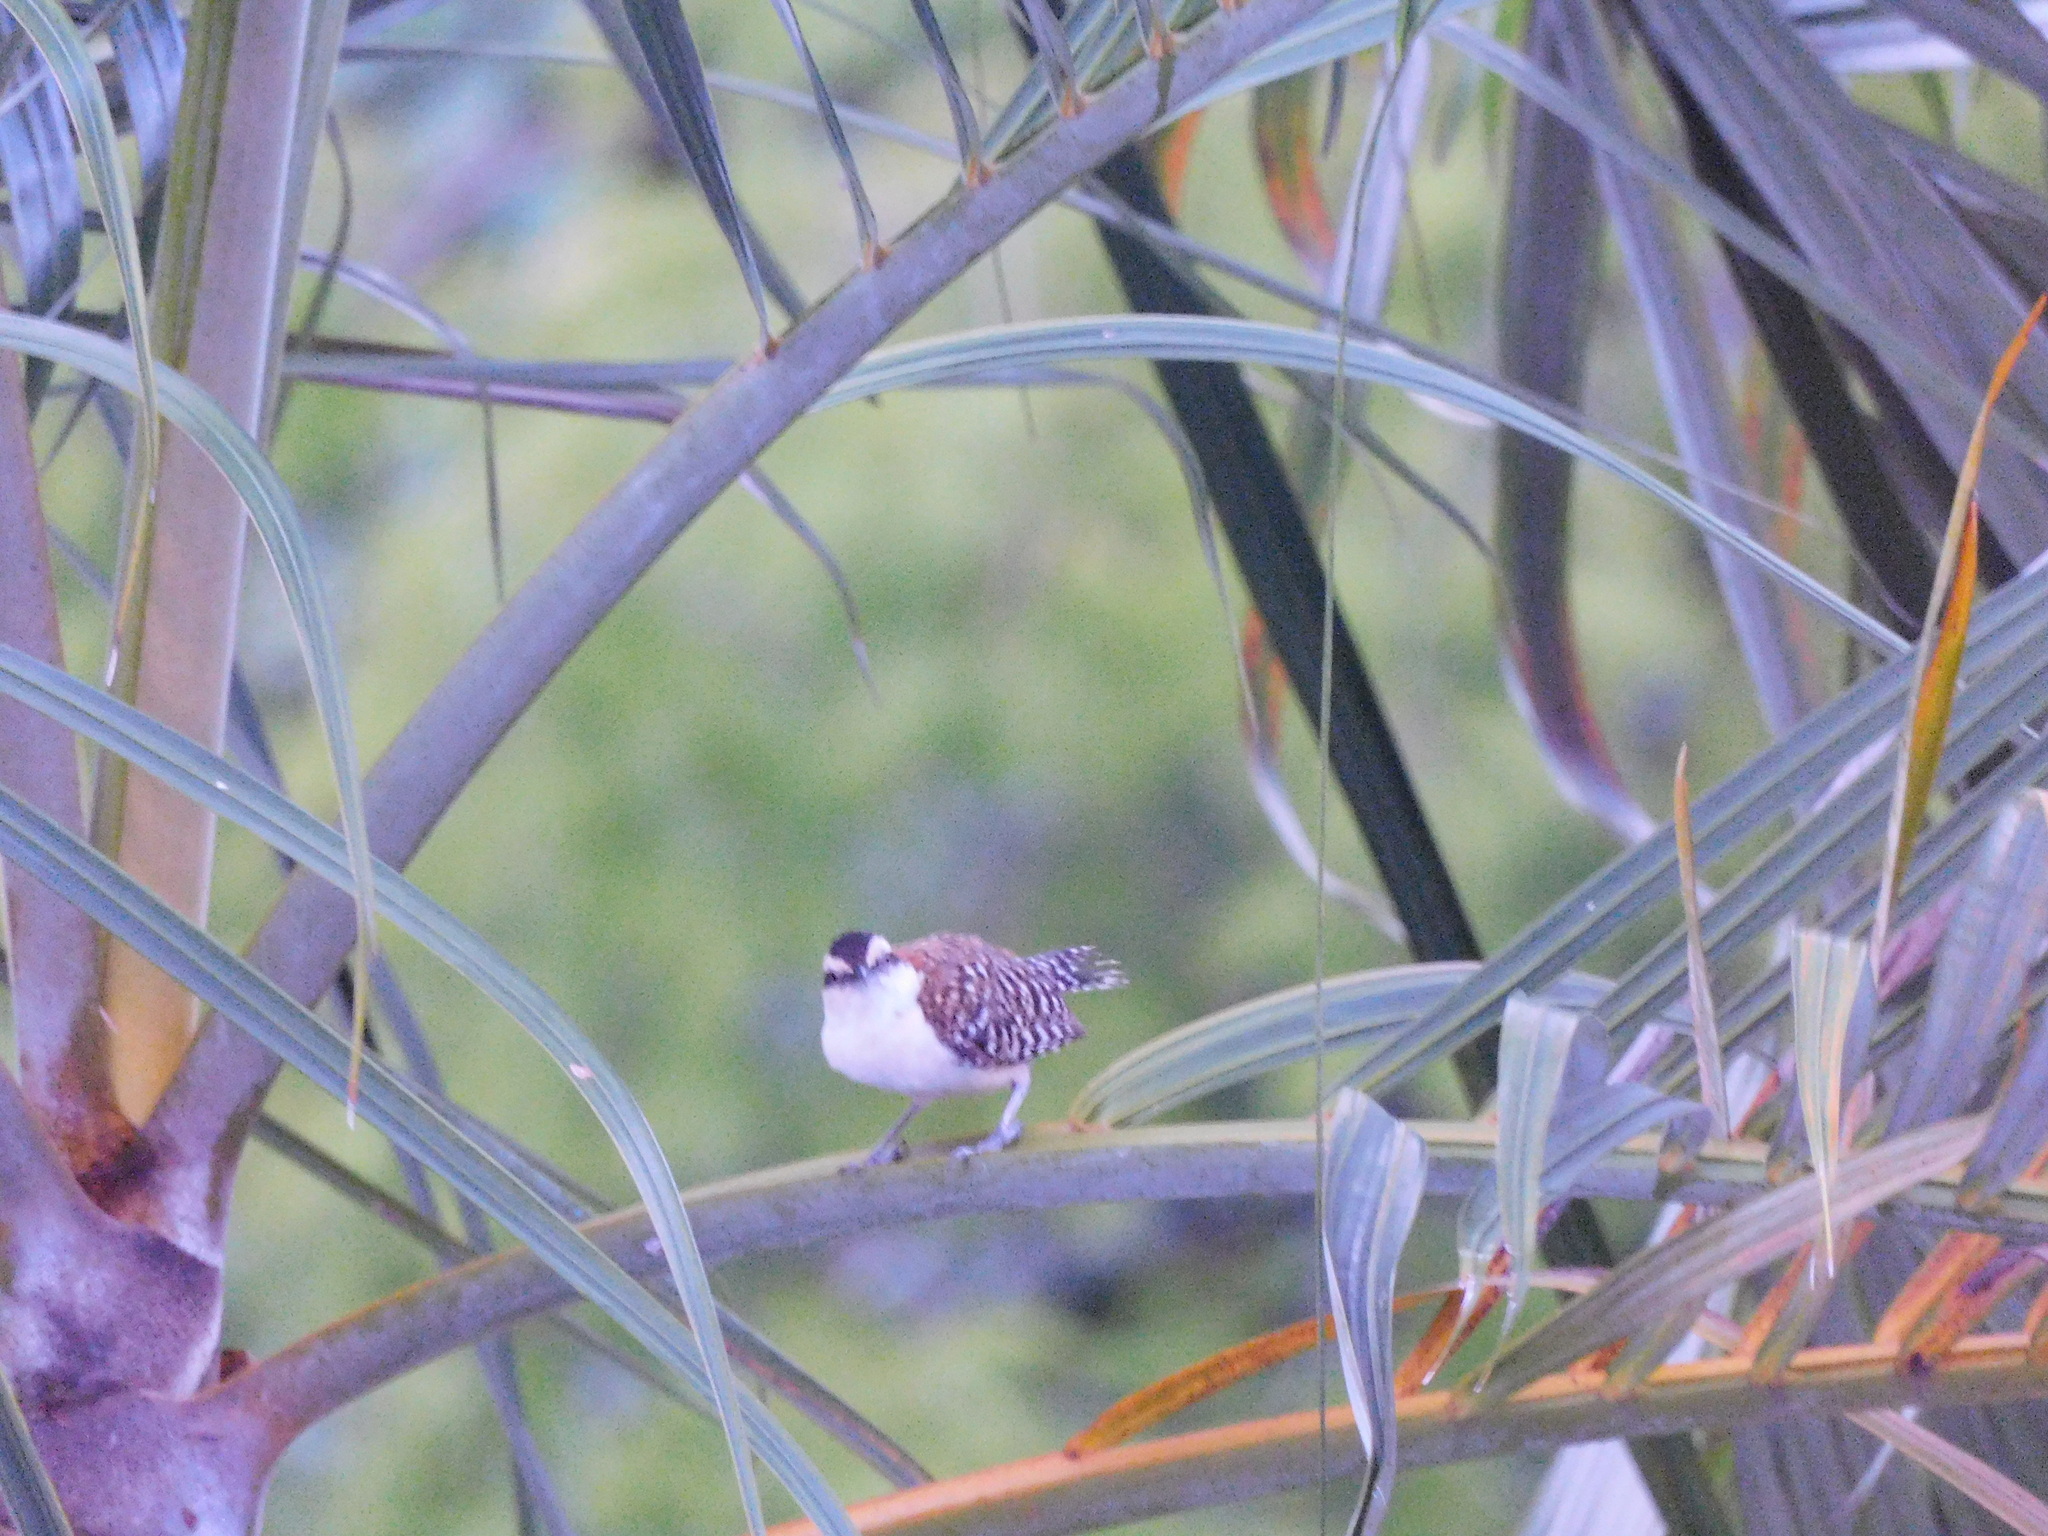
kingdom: Animalia
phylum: Chordata
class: Aves
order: Passeriformes
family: Troglodytidae
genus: Campylorhynchus
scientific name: Campylorhynchus rufinucha
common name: Rufous-naped wren
